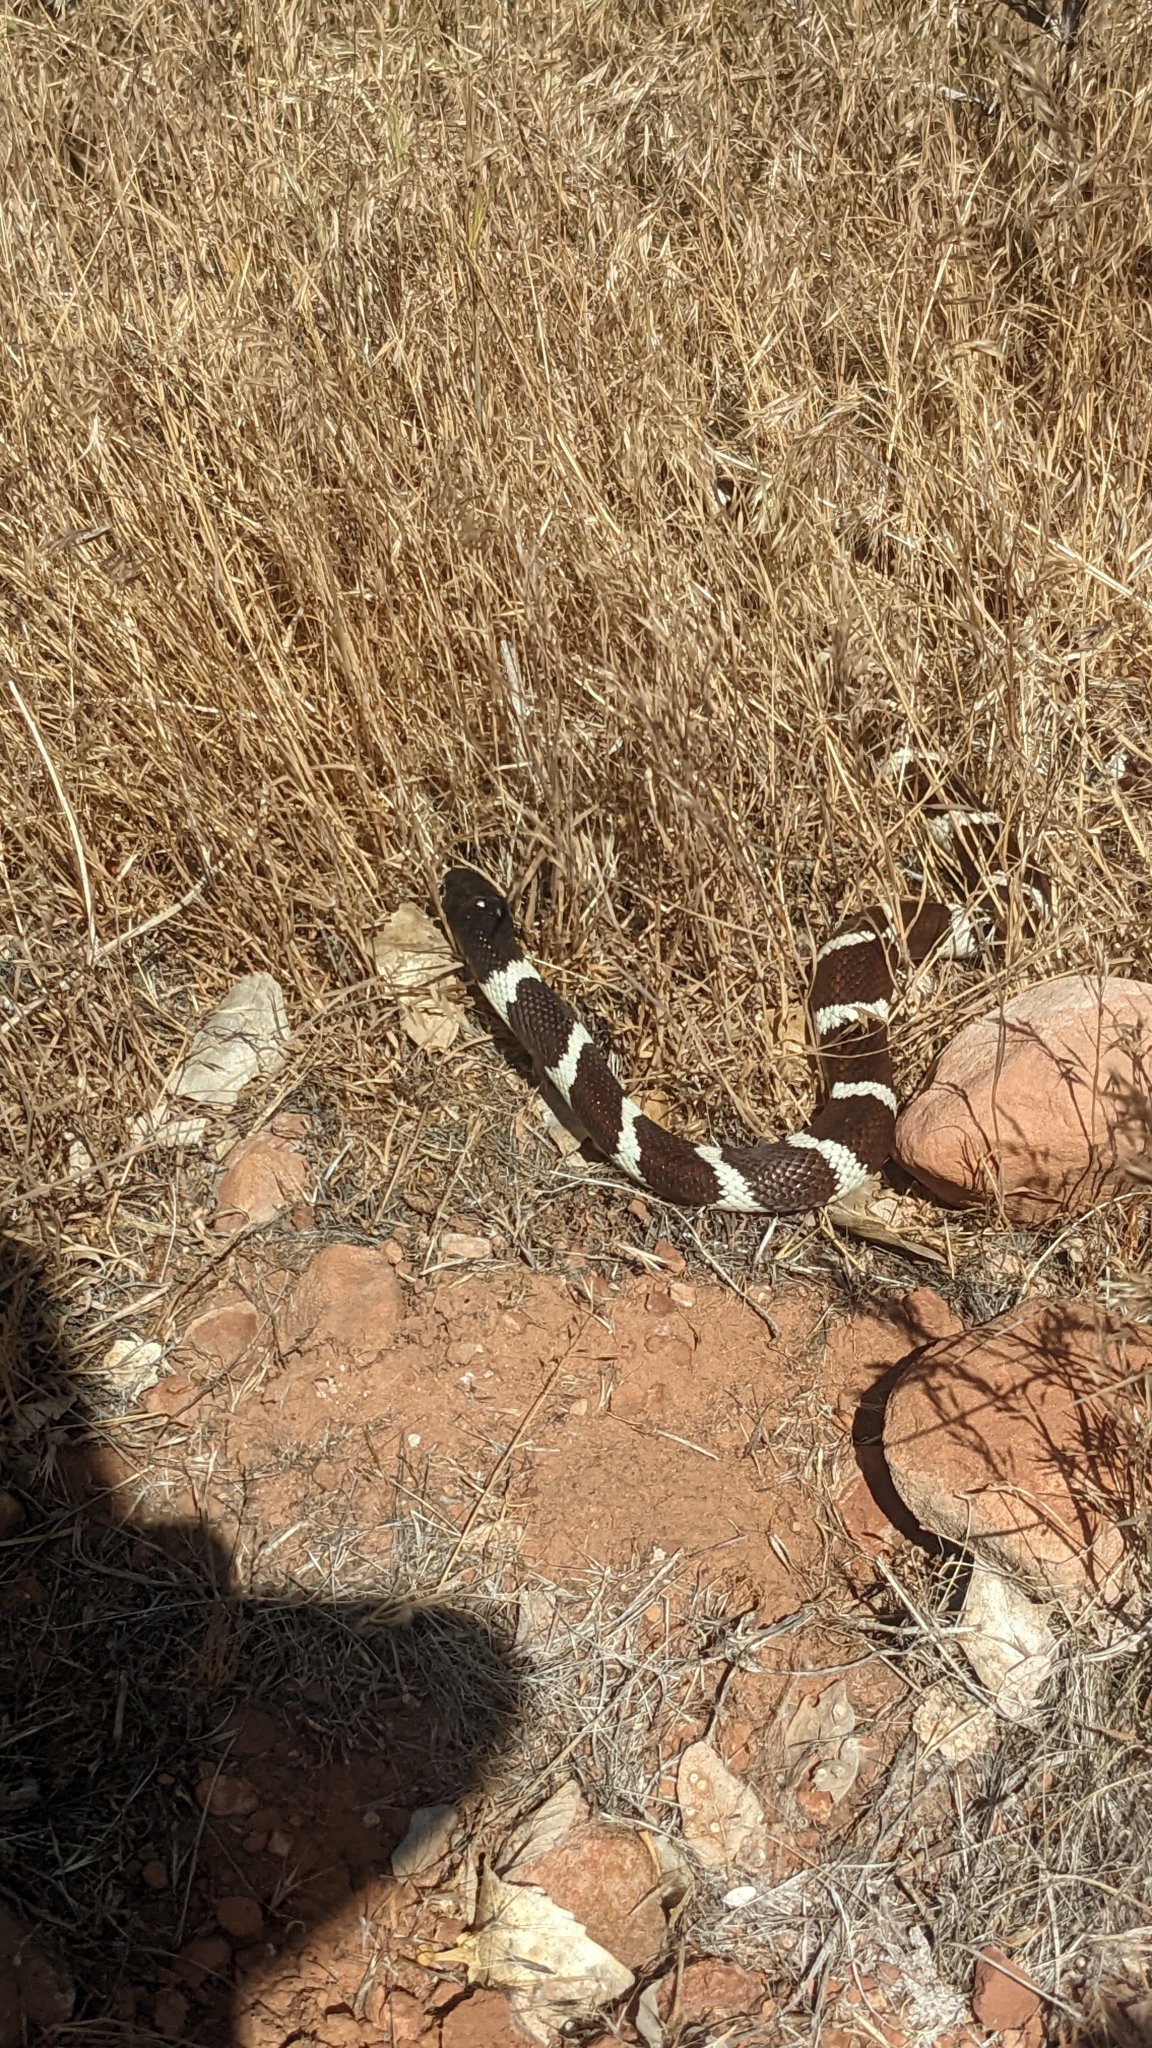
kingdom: Animalia
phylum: Chordata
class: Squamata
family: Colubridae
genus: Lampropeltis
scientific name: Lampropeltis californiae
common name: California kingsnake
